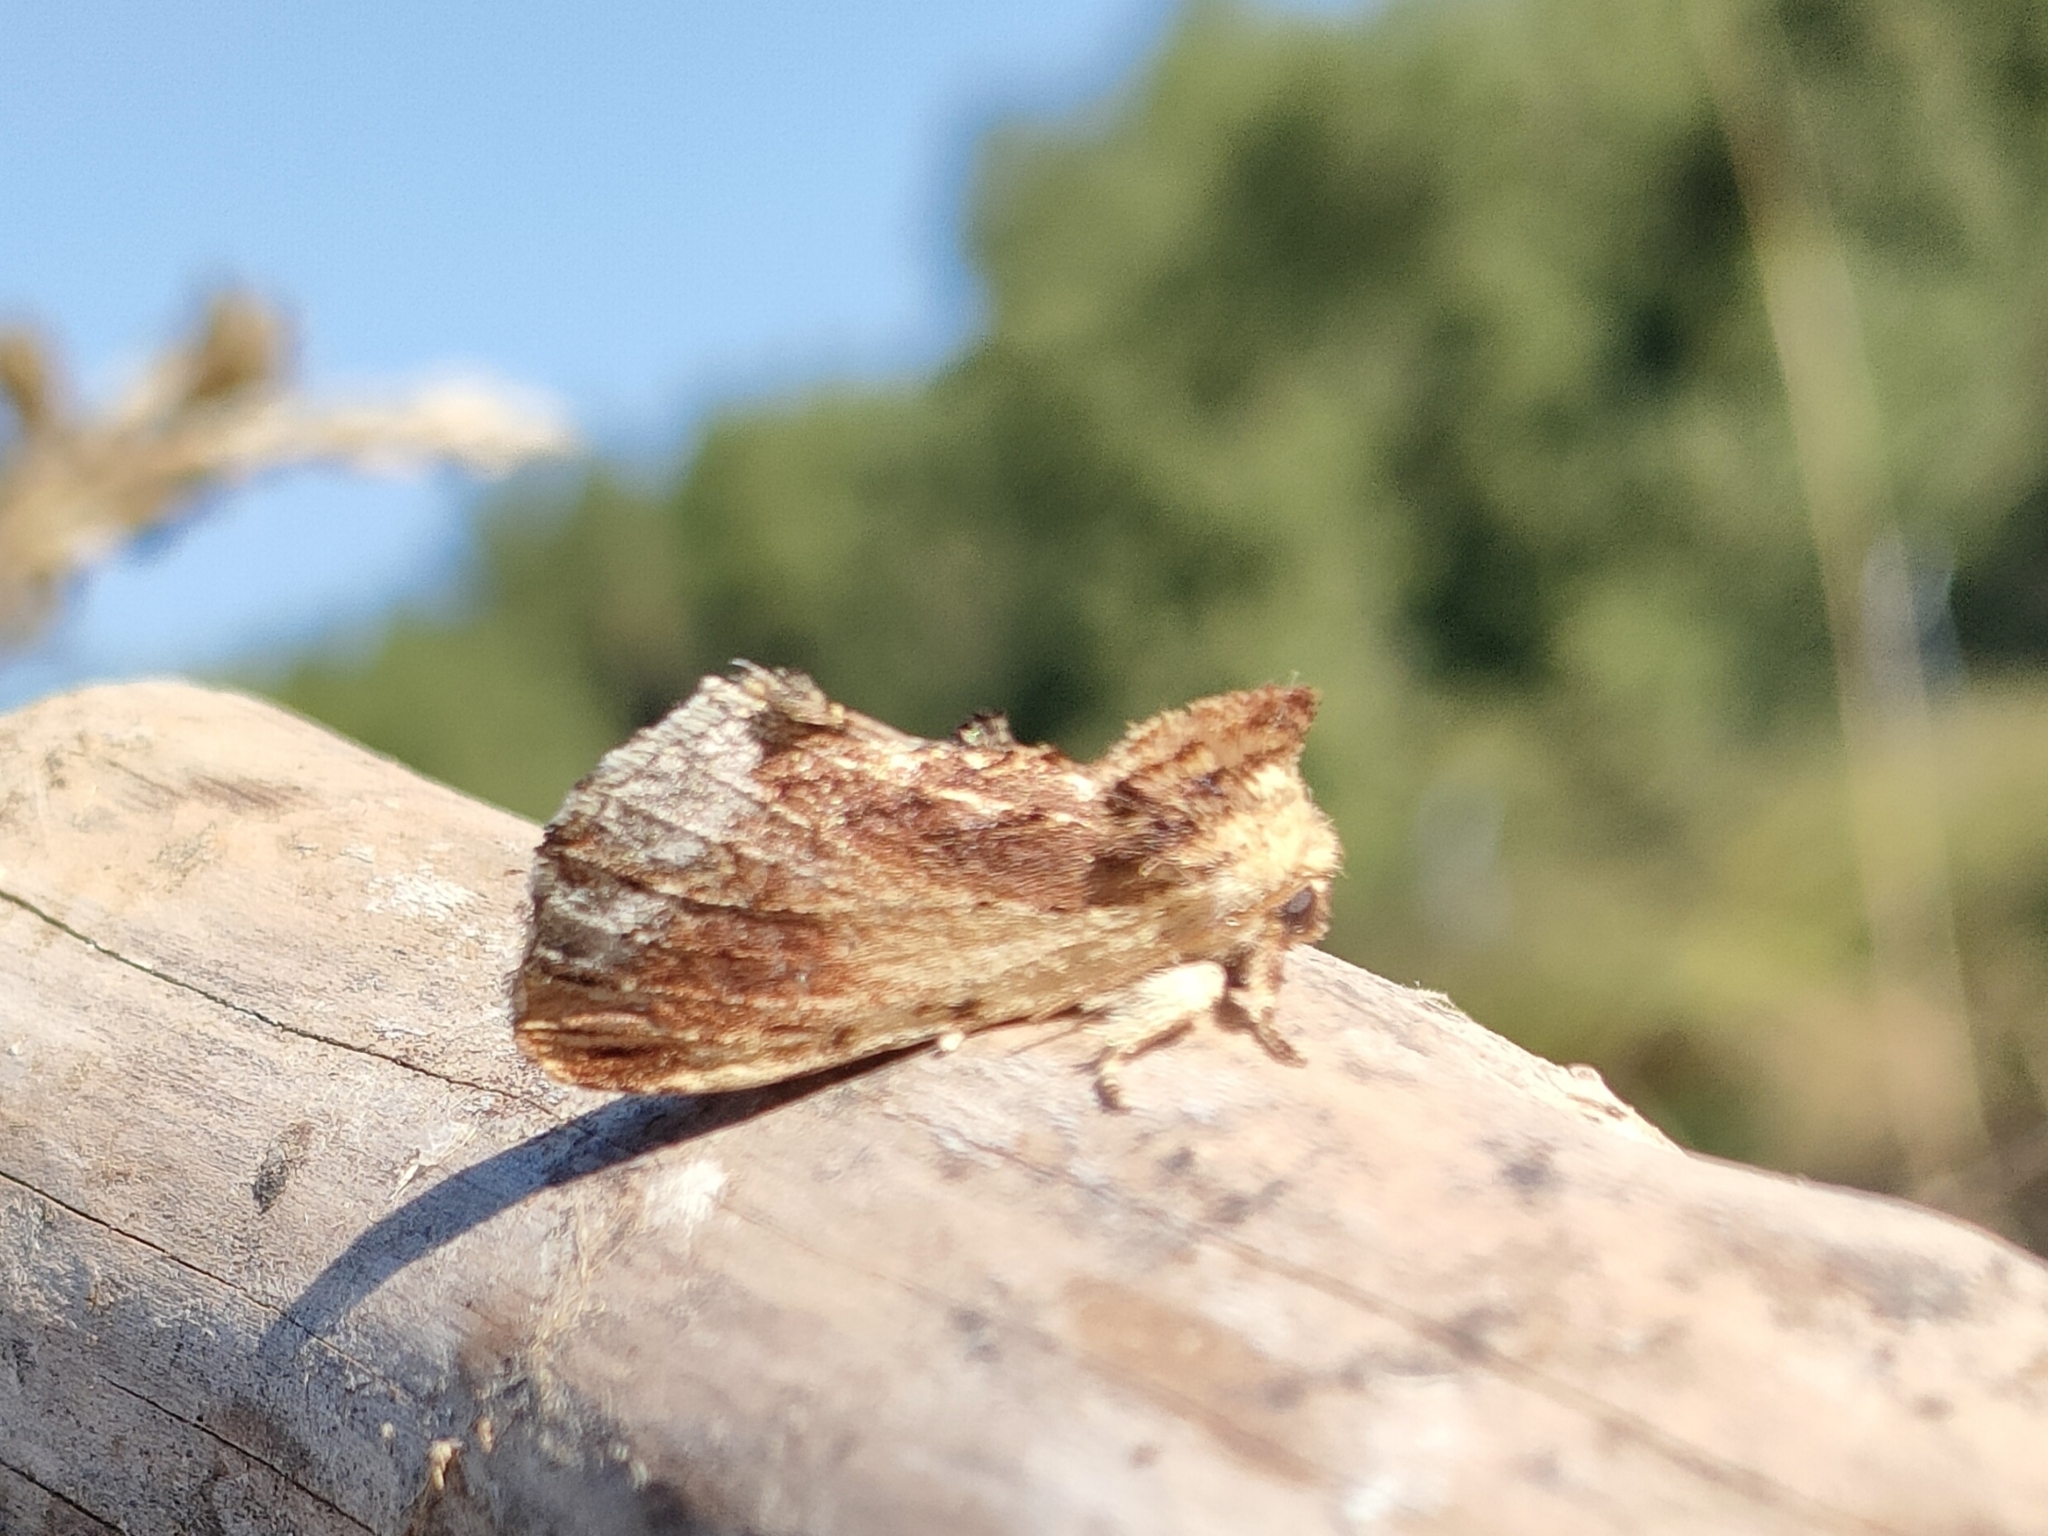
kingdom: Animalia
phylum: Arthropoda
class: Insecta
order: Lepidoptera
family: Notodontidae
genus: Ptilodon
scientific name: Ptilodon cucullina
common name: Maple prominent
